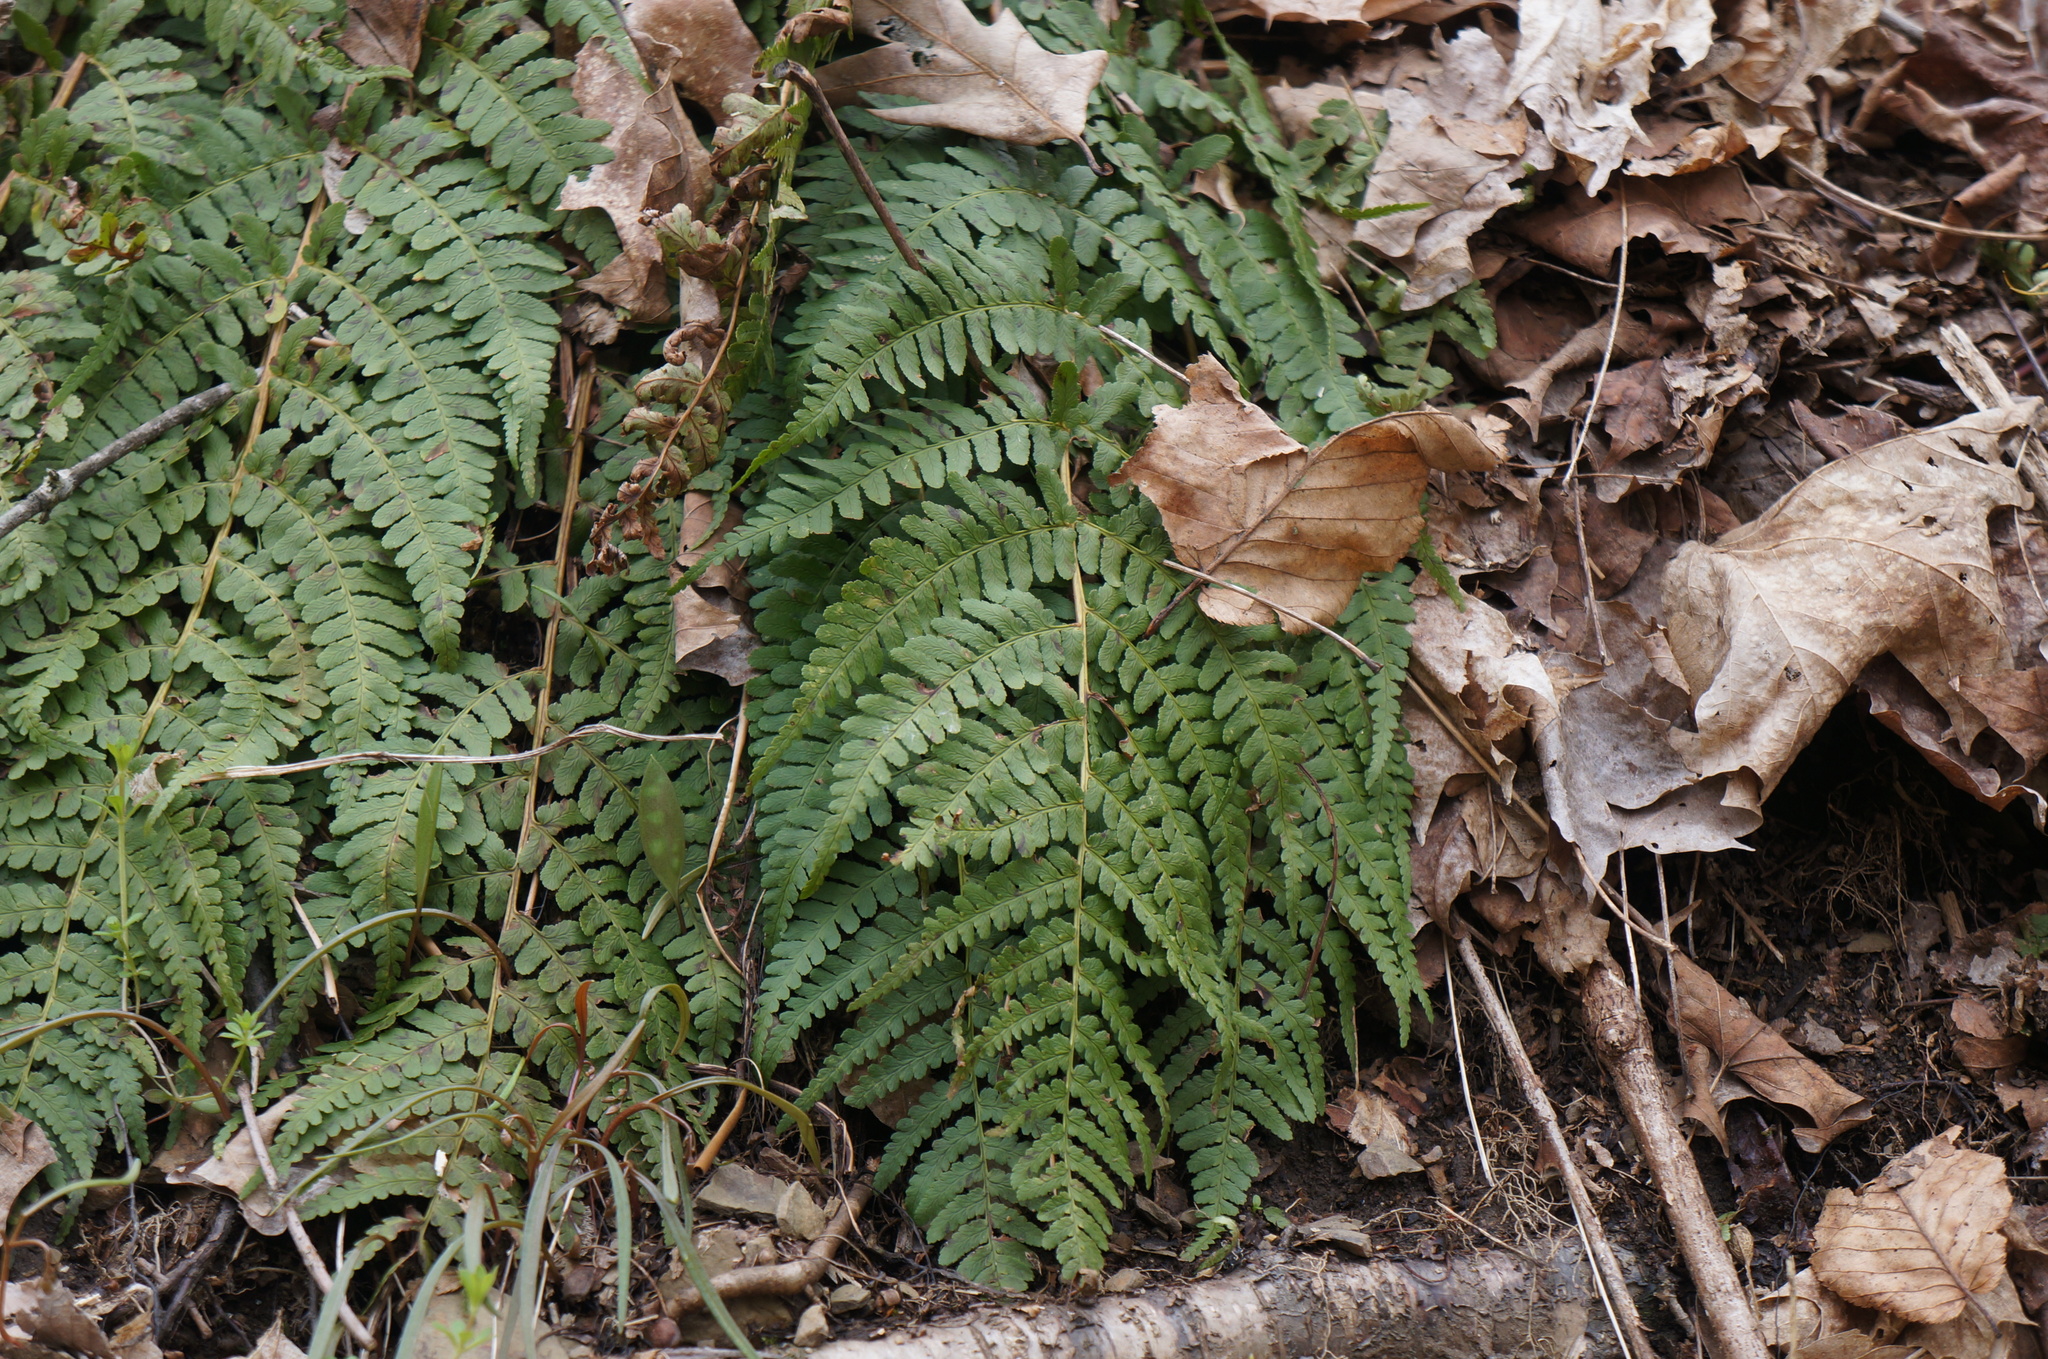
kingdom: Plantae
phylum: Tracheophyta
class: Polypodiopsida
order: Polypodiales
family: Dryopteridaceae
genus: Dryopteris
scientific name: Dryopteris marginalis
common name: Marginal wood fern
